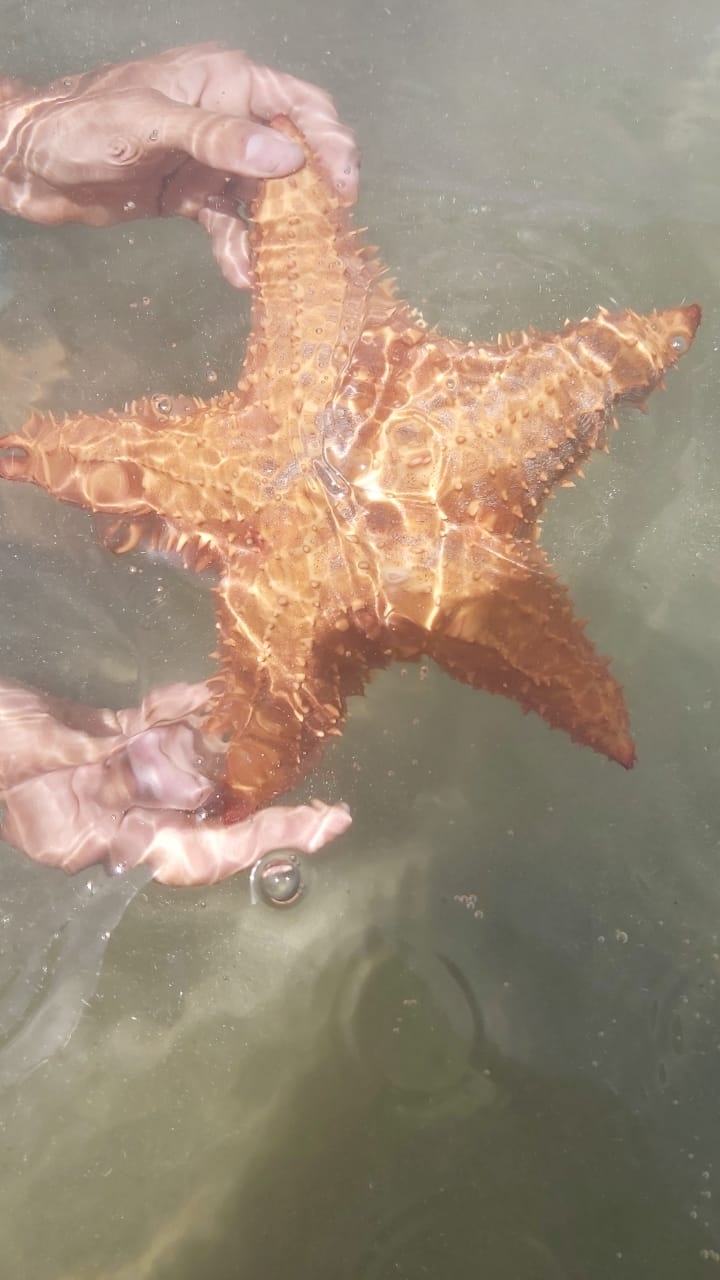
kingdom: Animalia
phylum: Echinodermata
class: Asteroidea
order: Valvatida
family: Oreasteridae
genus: Oreaster
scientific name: Oreaster reticulatus
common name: Cushion sea star
